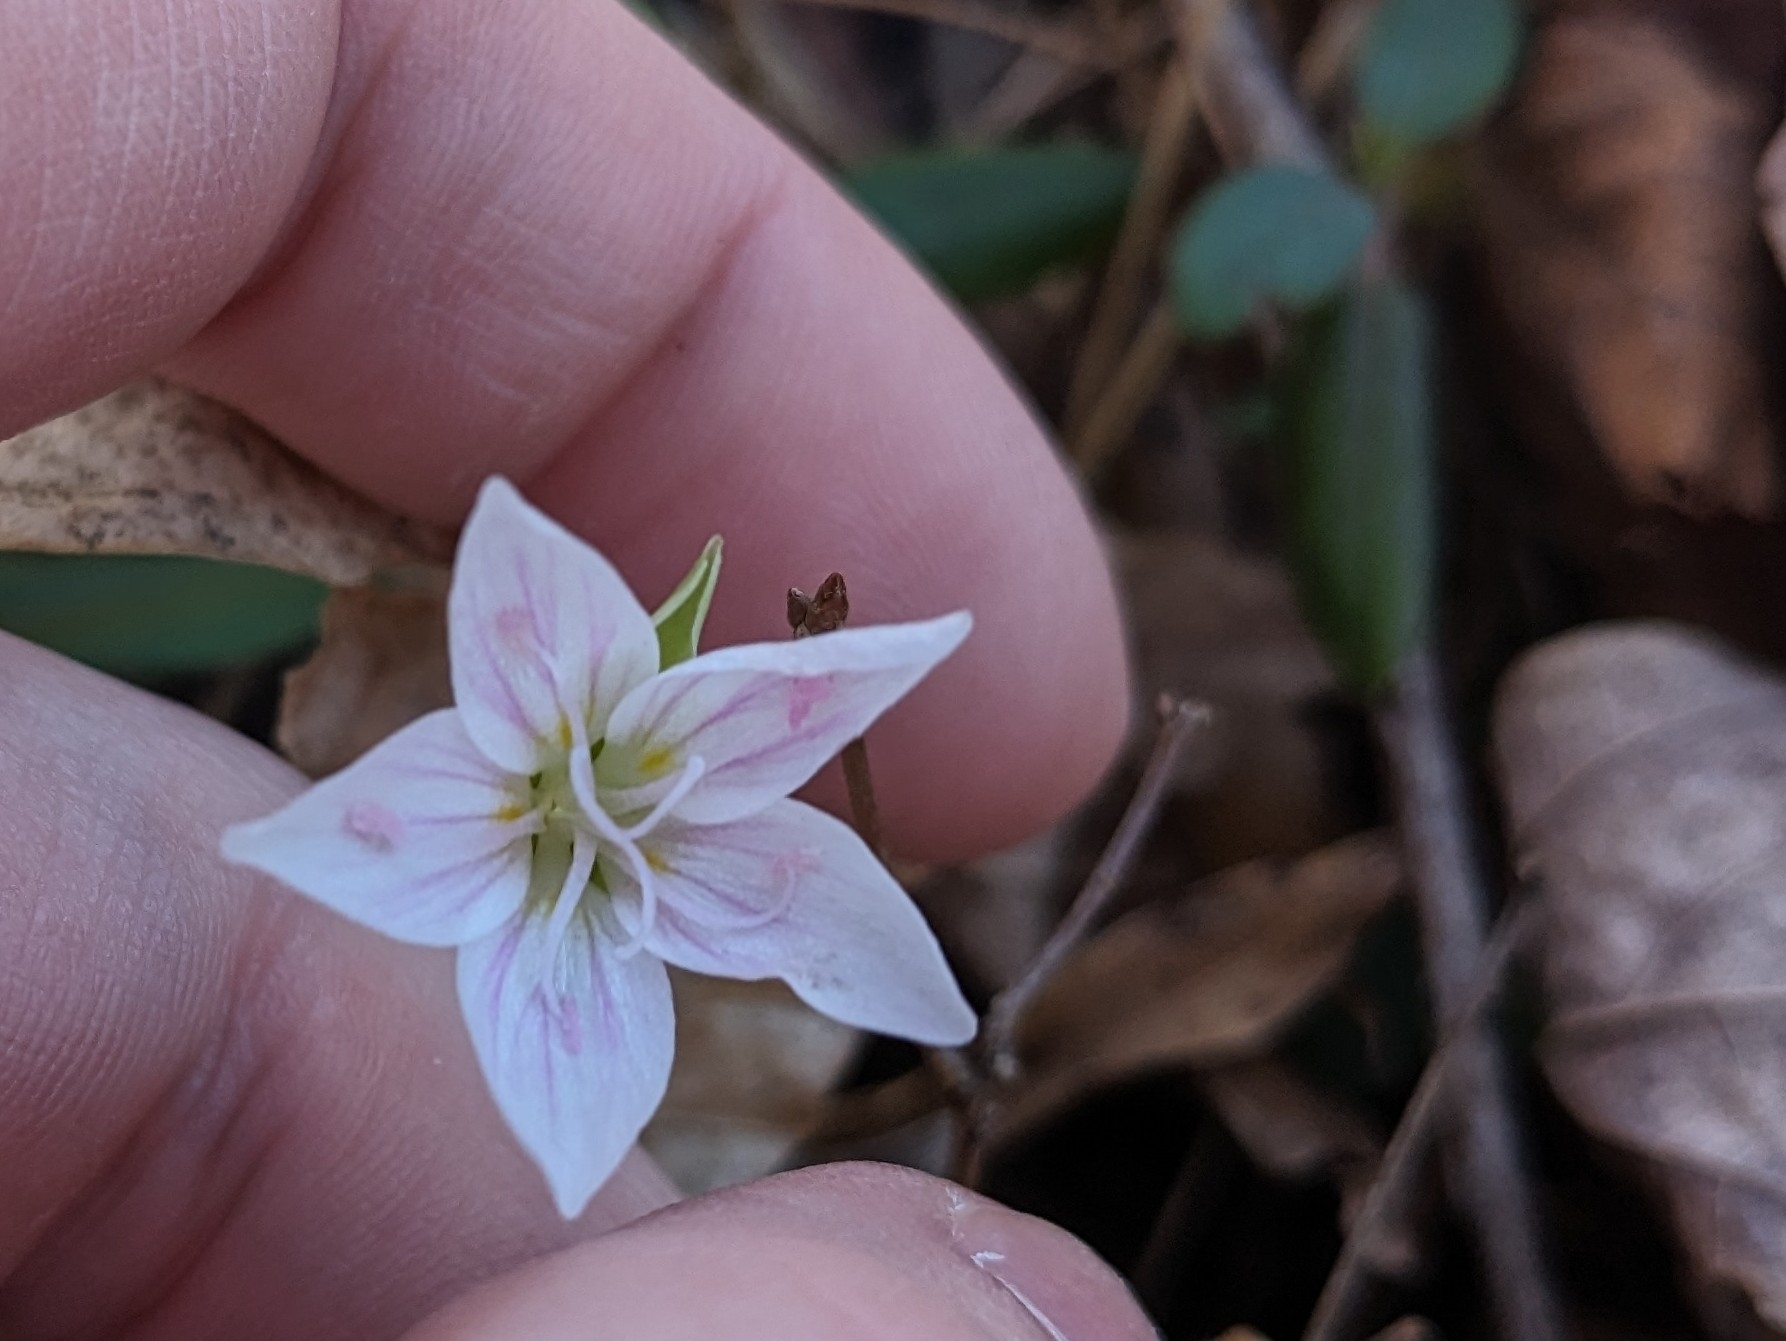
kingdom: Plantae
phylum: Tracheophyta
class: Magnoliopsida
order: Caryophyllales
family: Montiaceae
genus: Claytonia
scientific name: Claytonia virginica
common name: Virginia springbeauty
